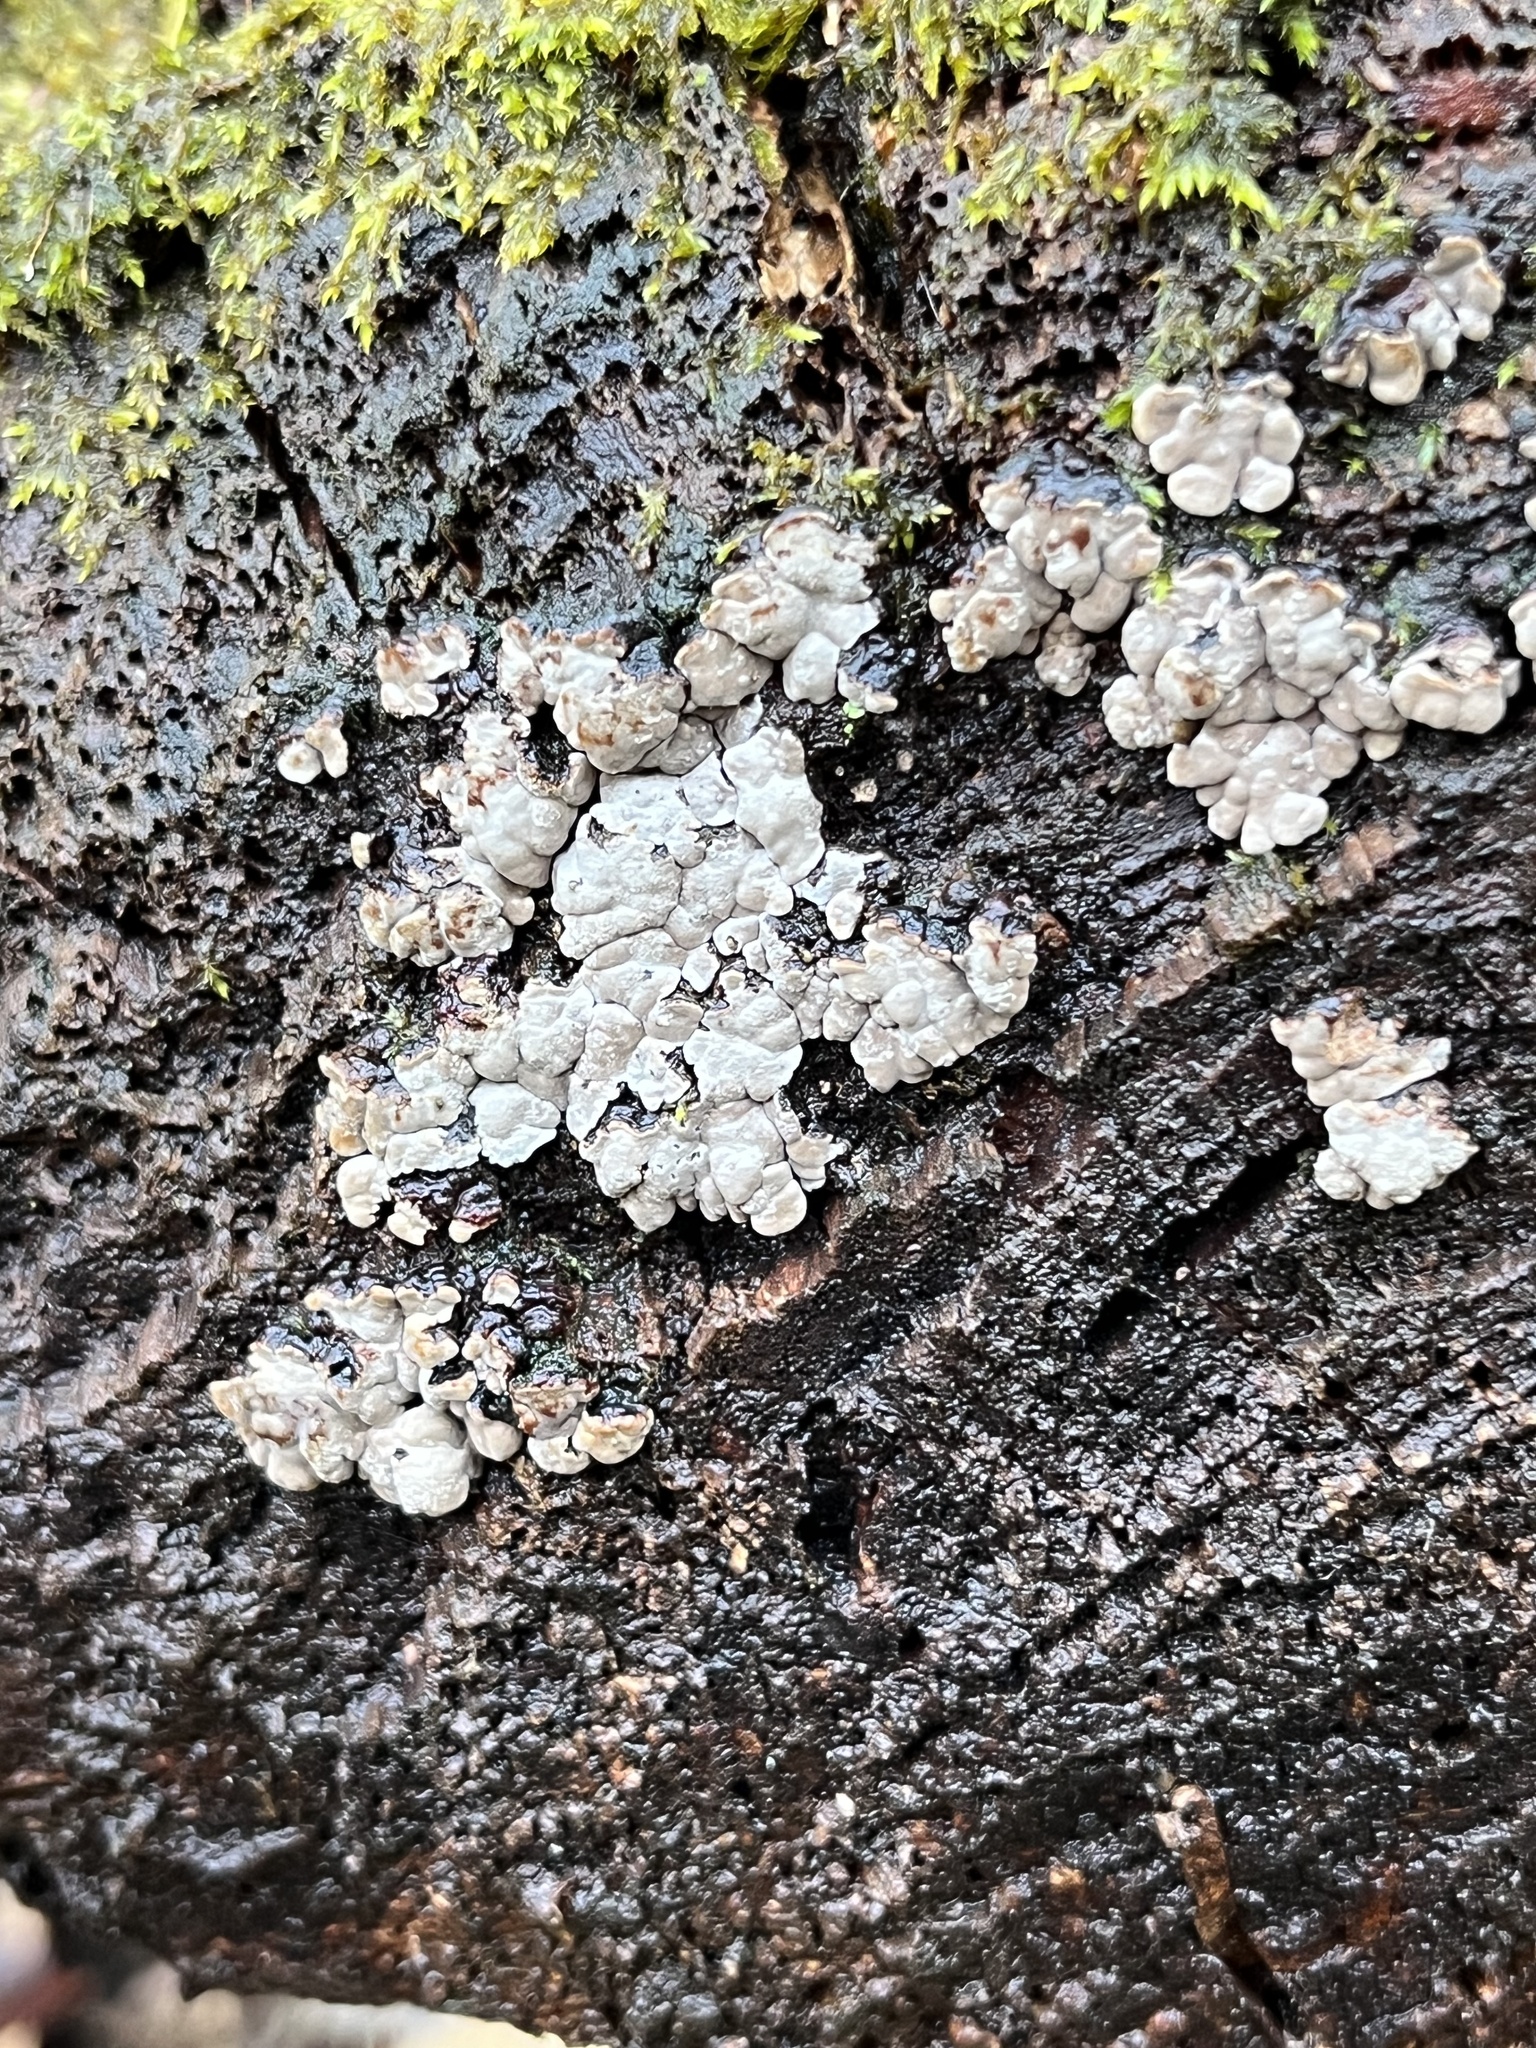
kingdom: Fungi
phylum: Basidiomycota
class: Agaricomycetes
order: Russulales
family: Stereaceae
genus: Xylobolus
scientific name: Xylobolus frustulatus
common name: Ceramic parchment
